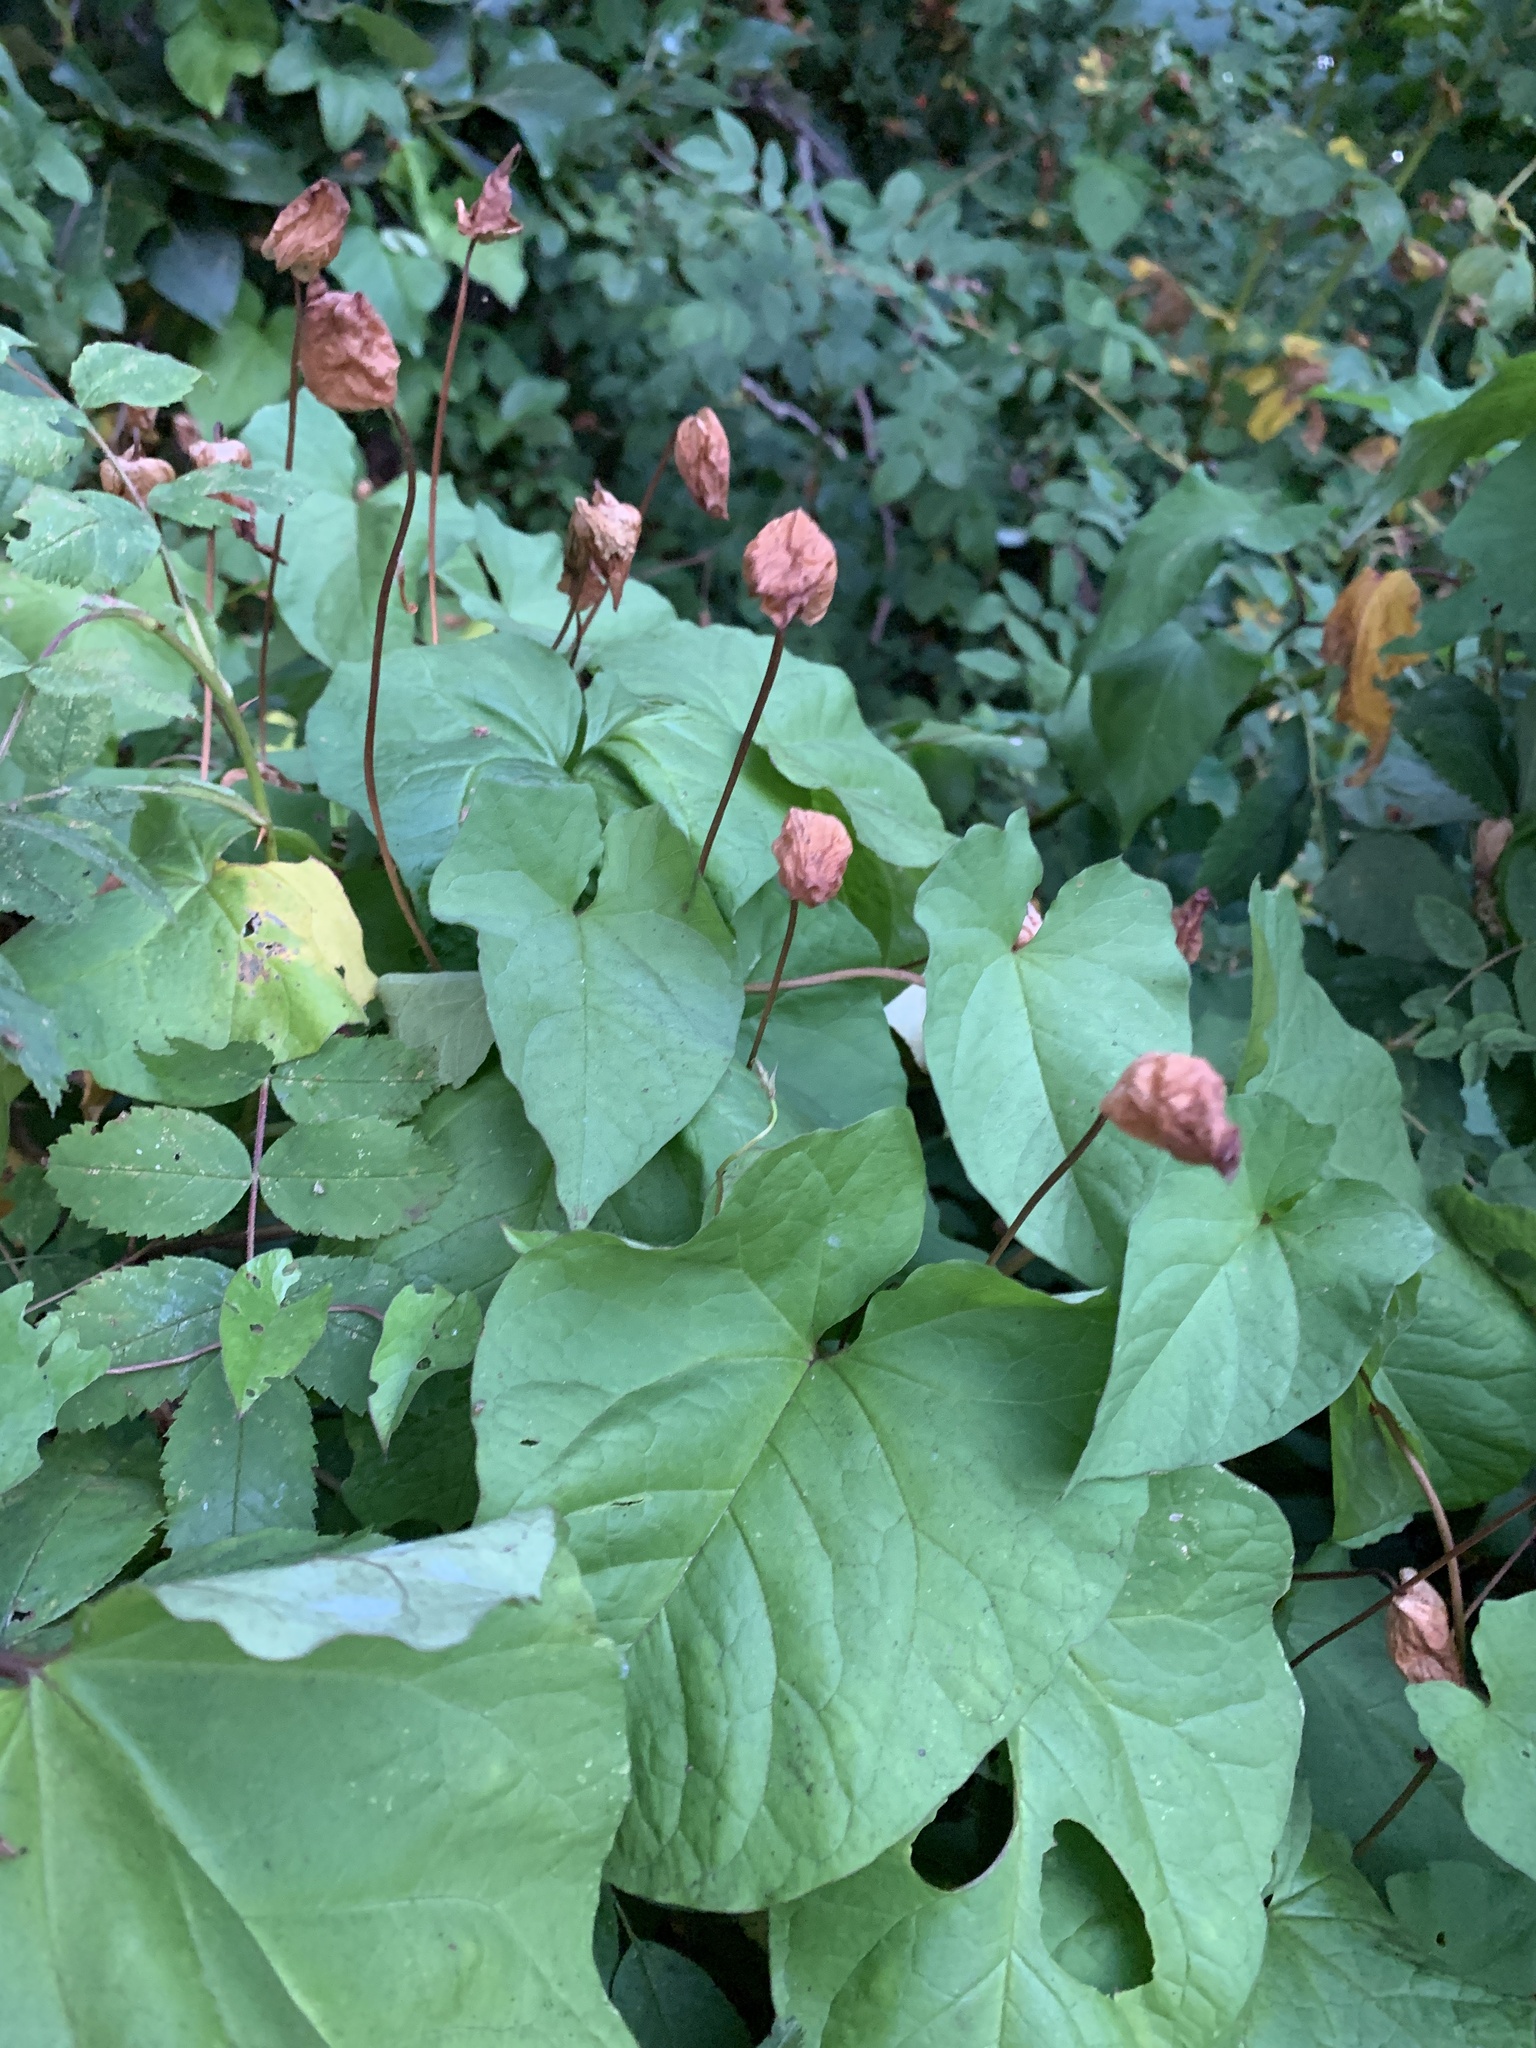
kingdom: Plantae
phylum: Tracheophyta
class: Magnoliopsida
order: Solanales
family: Convolvulaceae
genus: Calystegia
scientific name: Calystegia silvatica
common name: Large bindweed
